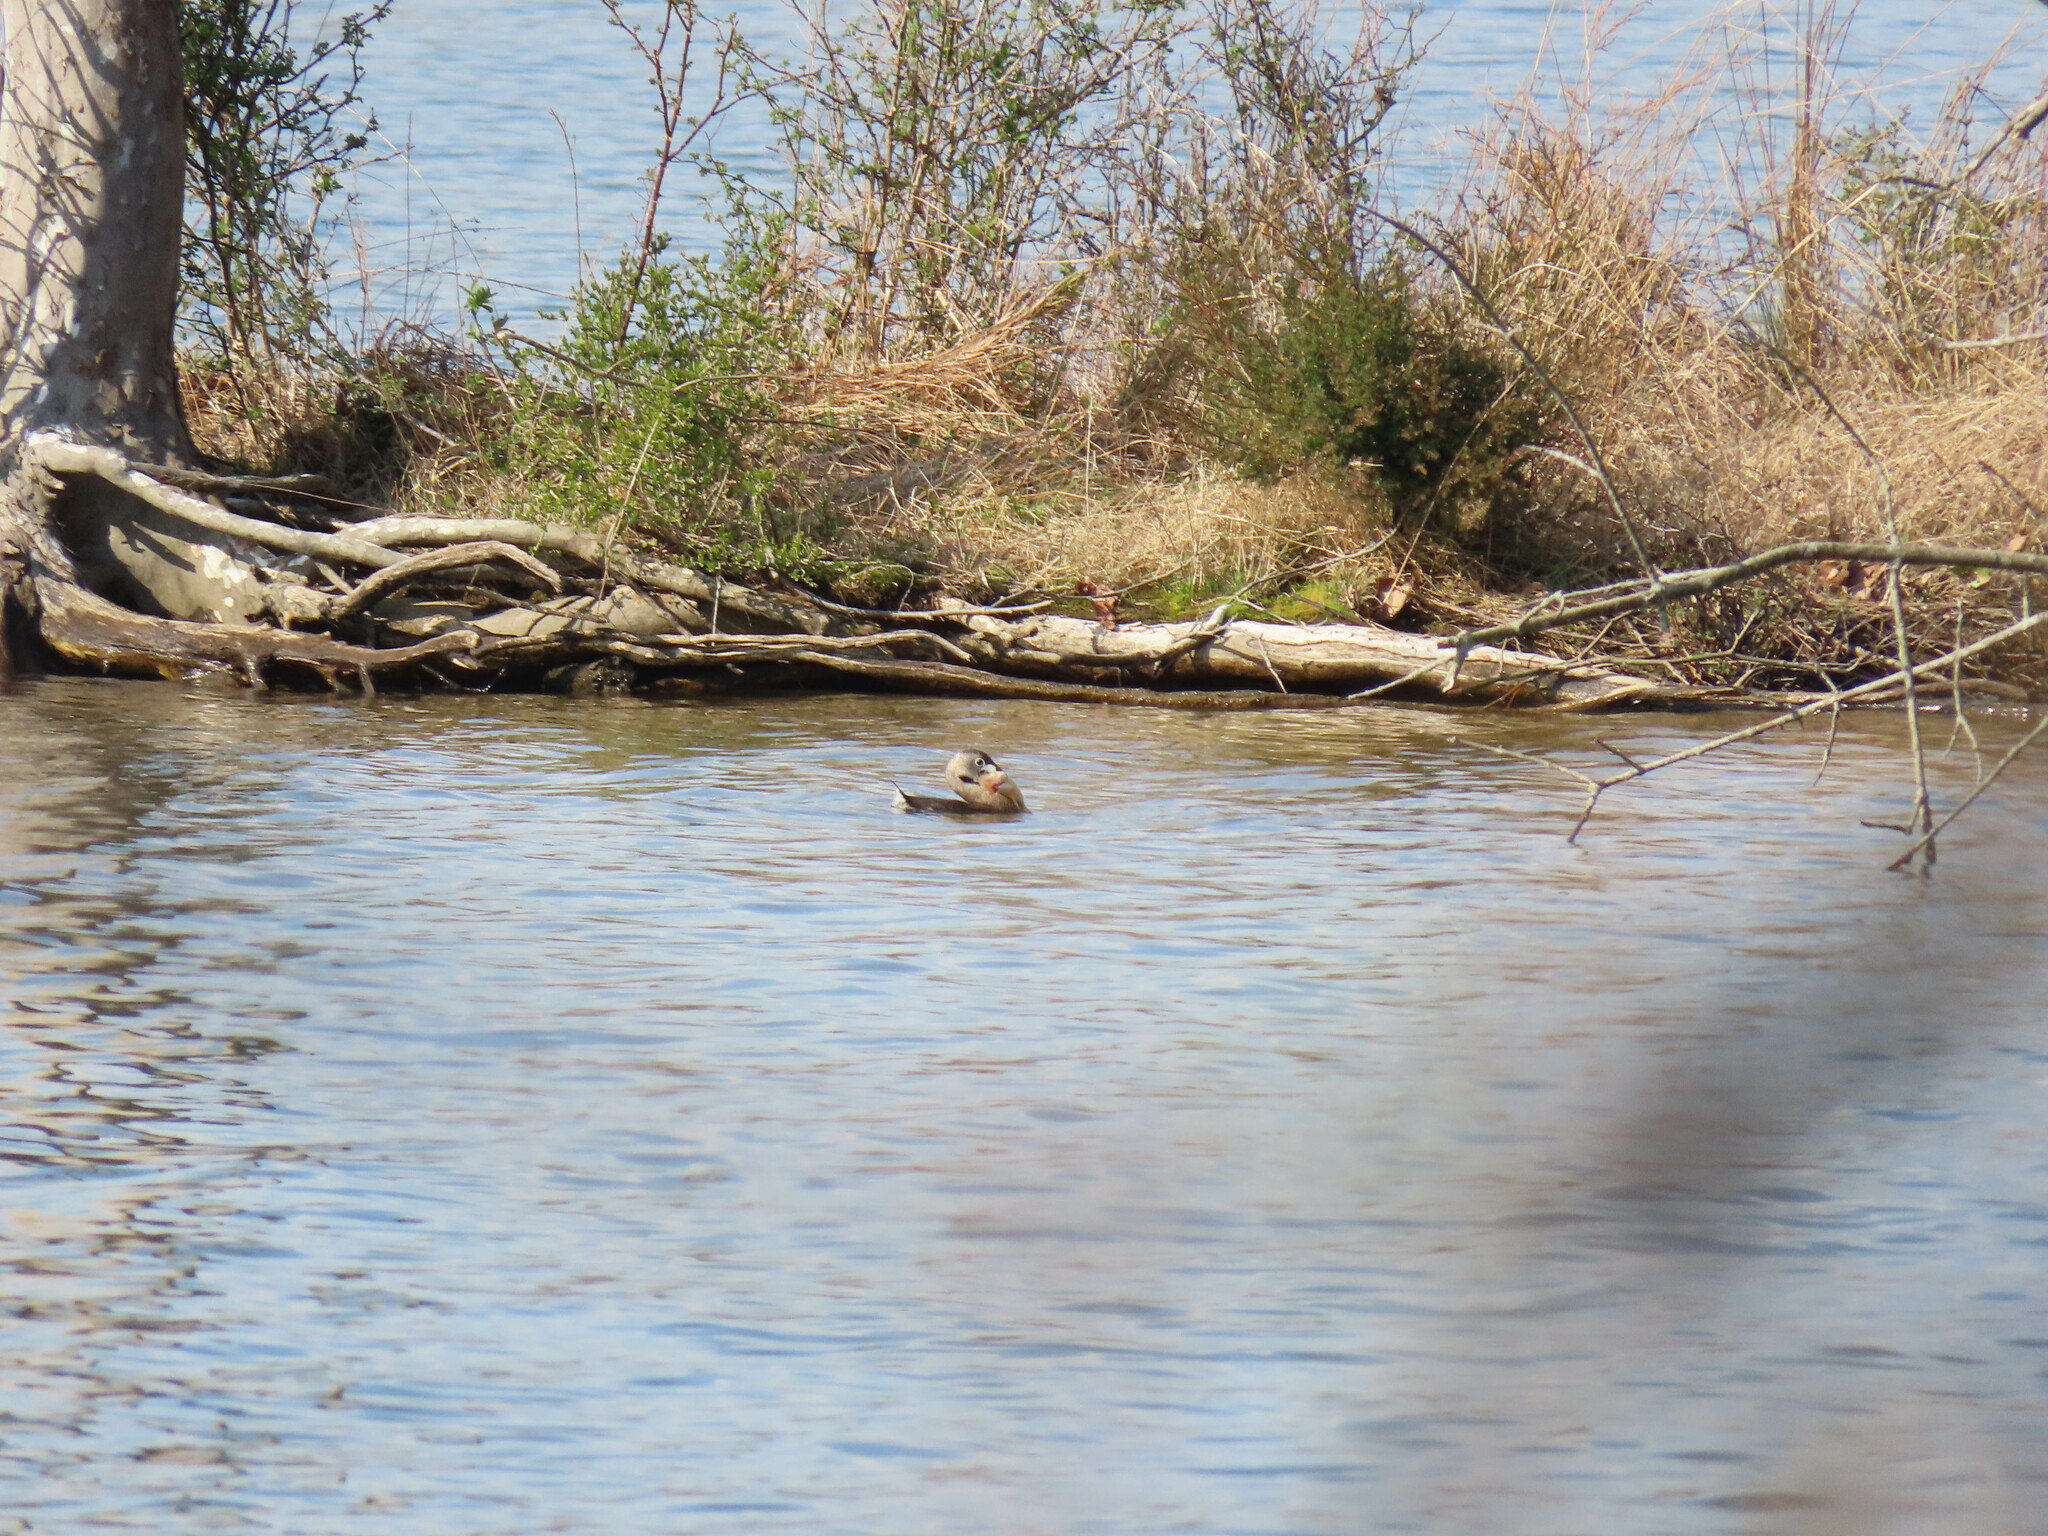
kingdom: Animalia
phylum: Chordata
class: Aves
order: Podicipediformes
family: Podicipedidae
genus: Podilymbus
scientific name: Podilymbus podiceps
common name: Pied-billed grebe
